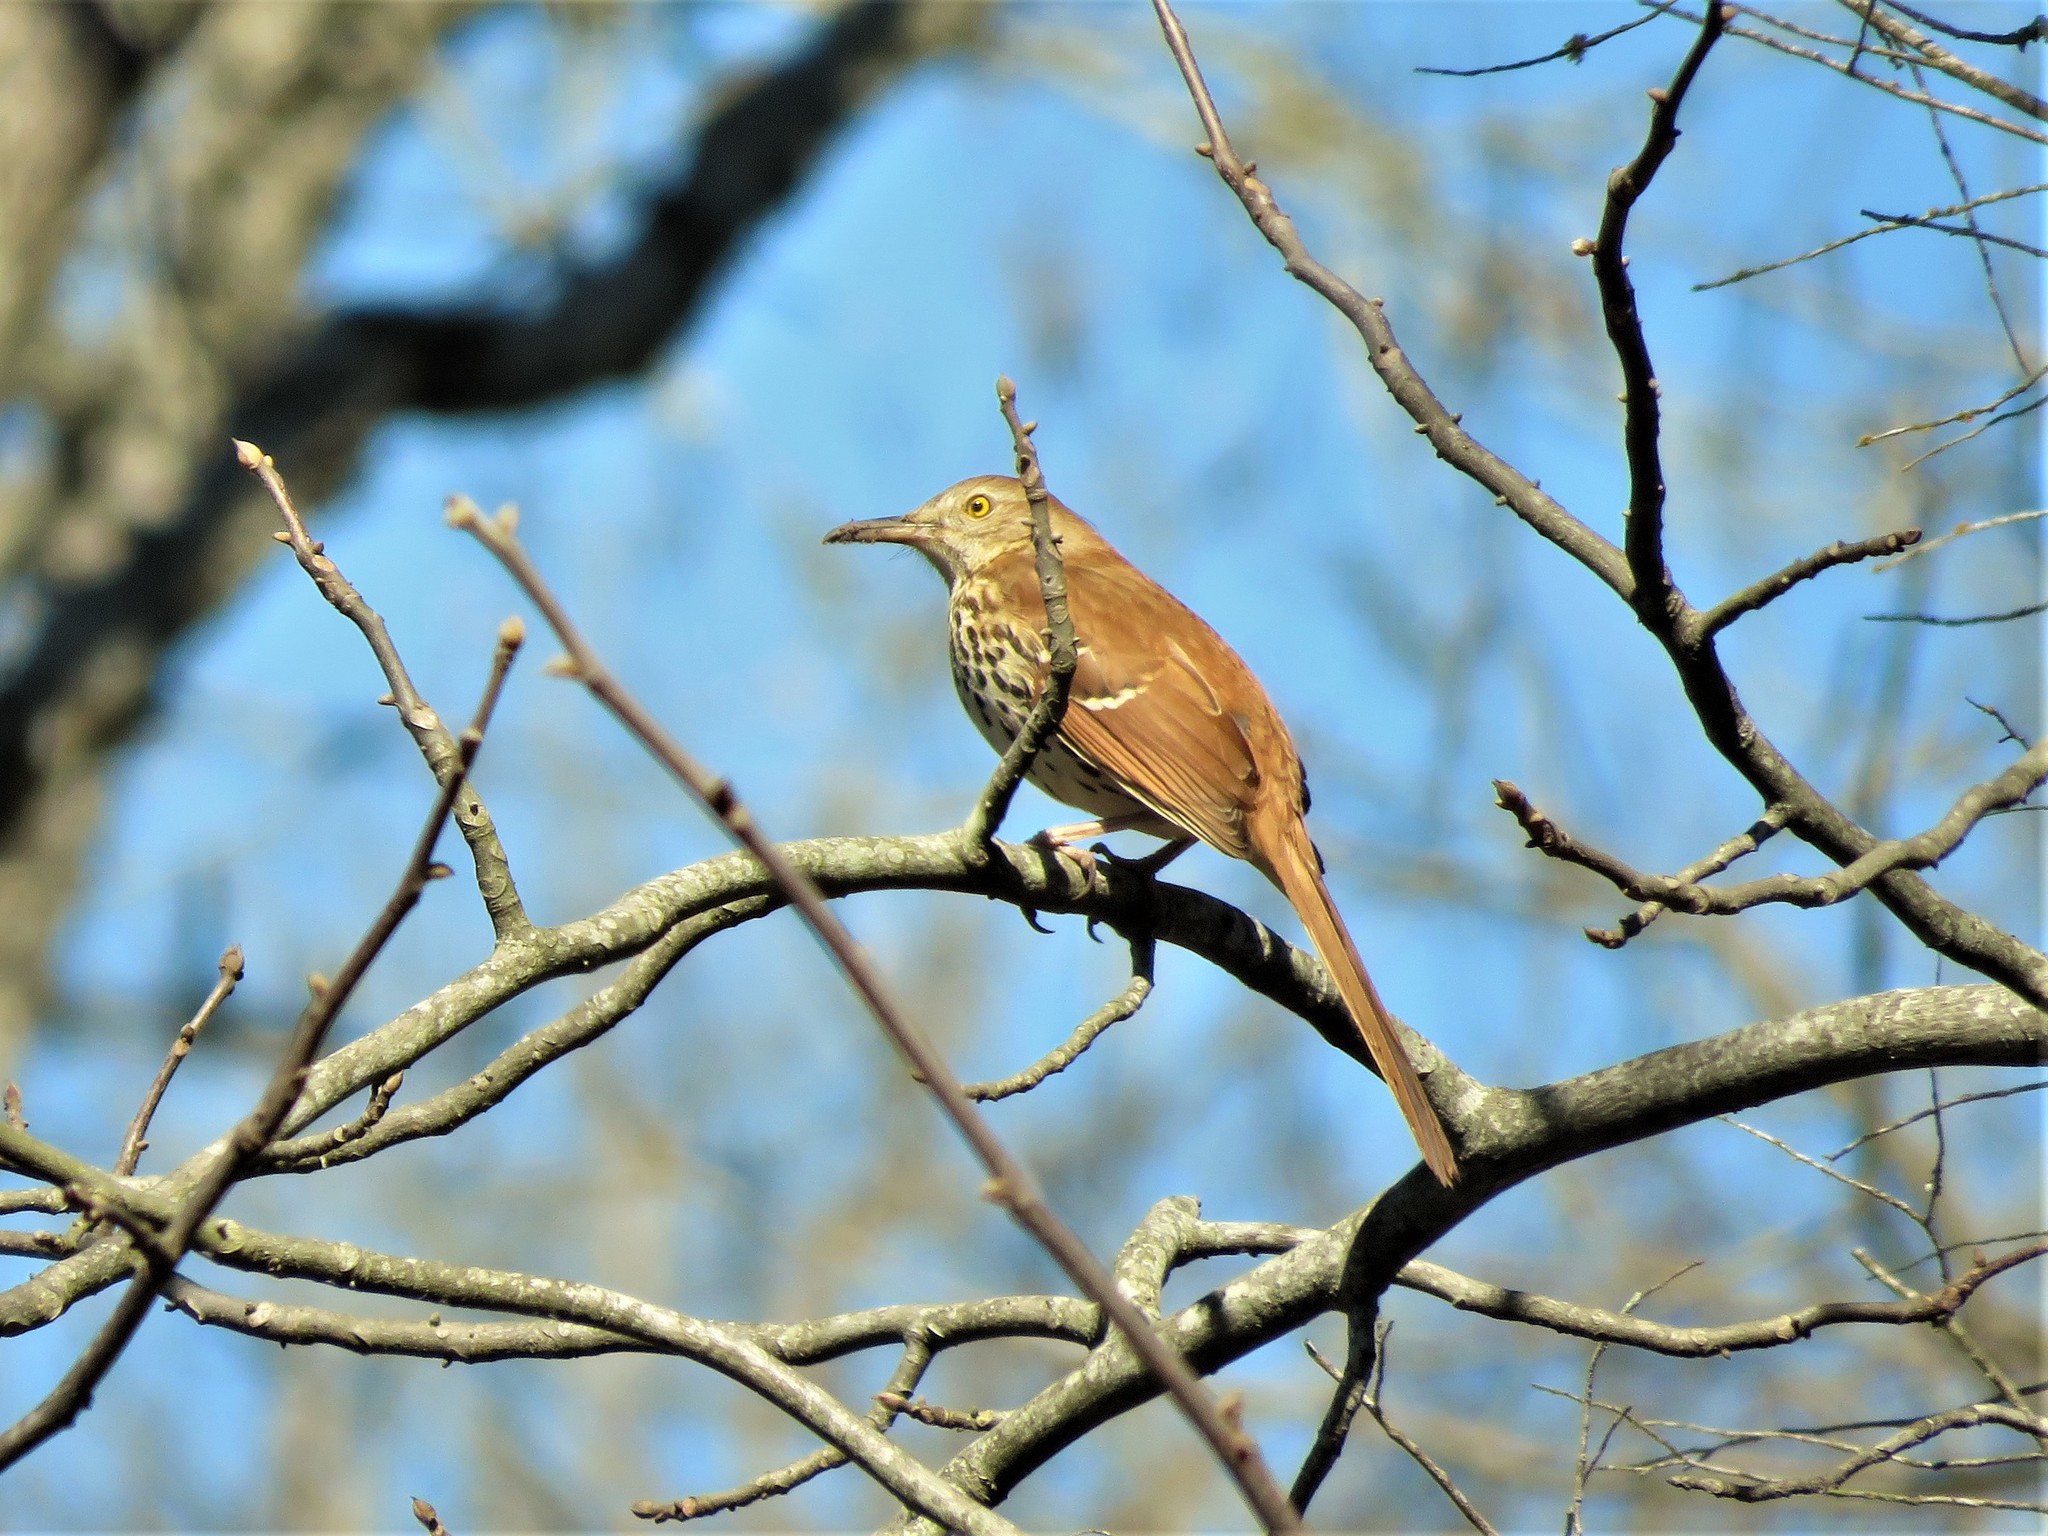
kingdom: Animalia
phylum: Chordata
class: Aves
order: Passeriformes
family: Mimidae
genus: Toxostoma
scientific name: Toxostoma rufum
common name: Brown thrasher
